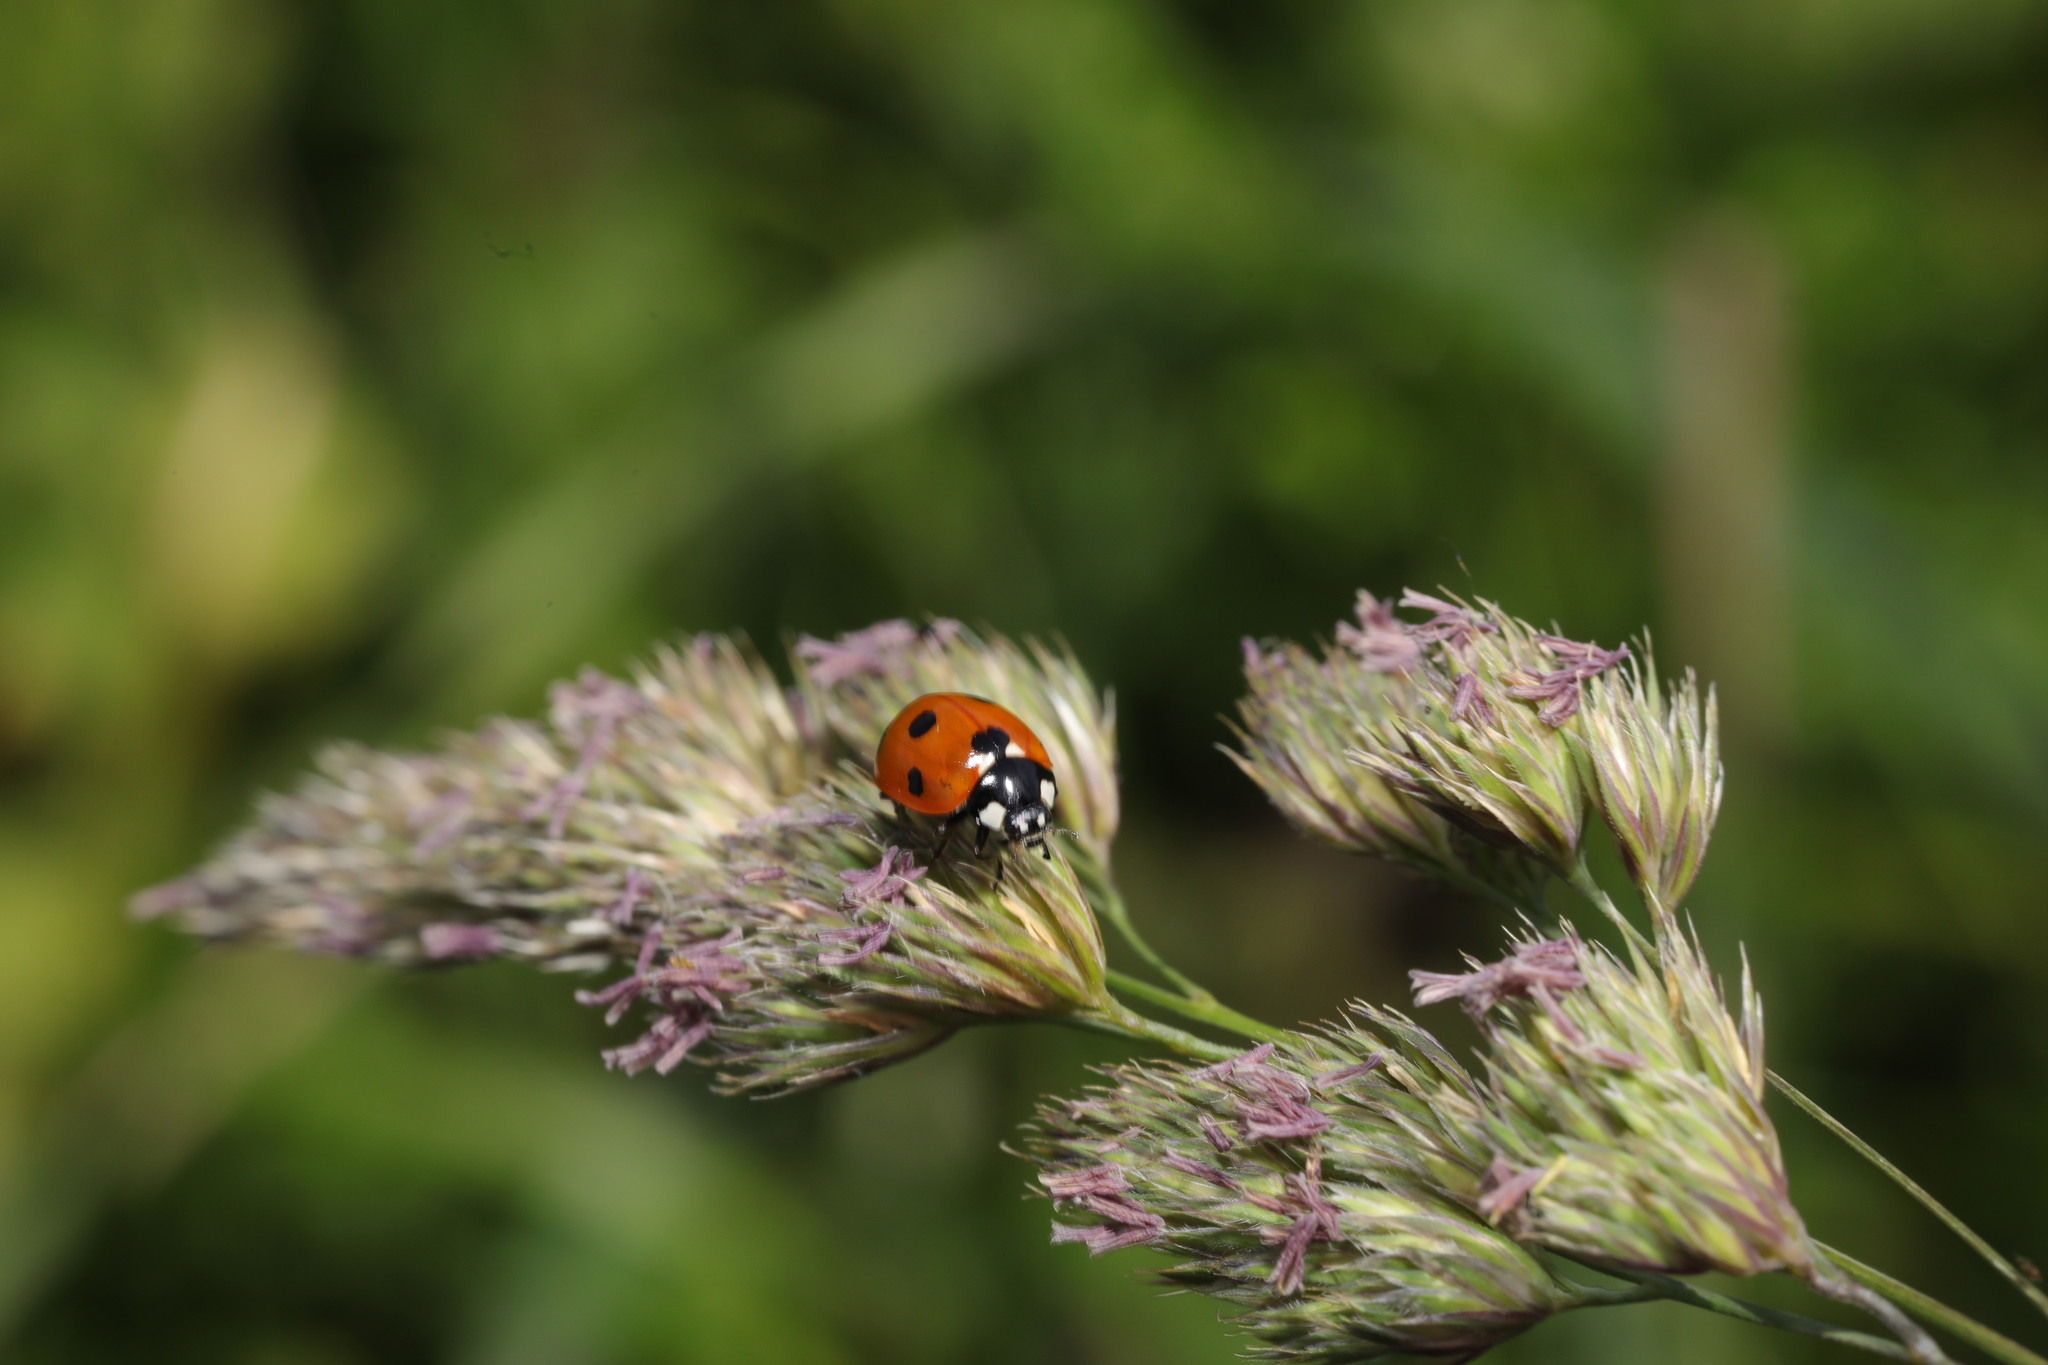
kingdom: Animalia
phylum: Arthropoda
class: Insecta
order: Coleoptera
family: Coccinellidae
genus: Coccinella
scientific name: Coccinella septempunctata
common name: Sevenspotted lady beetle
